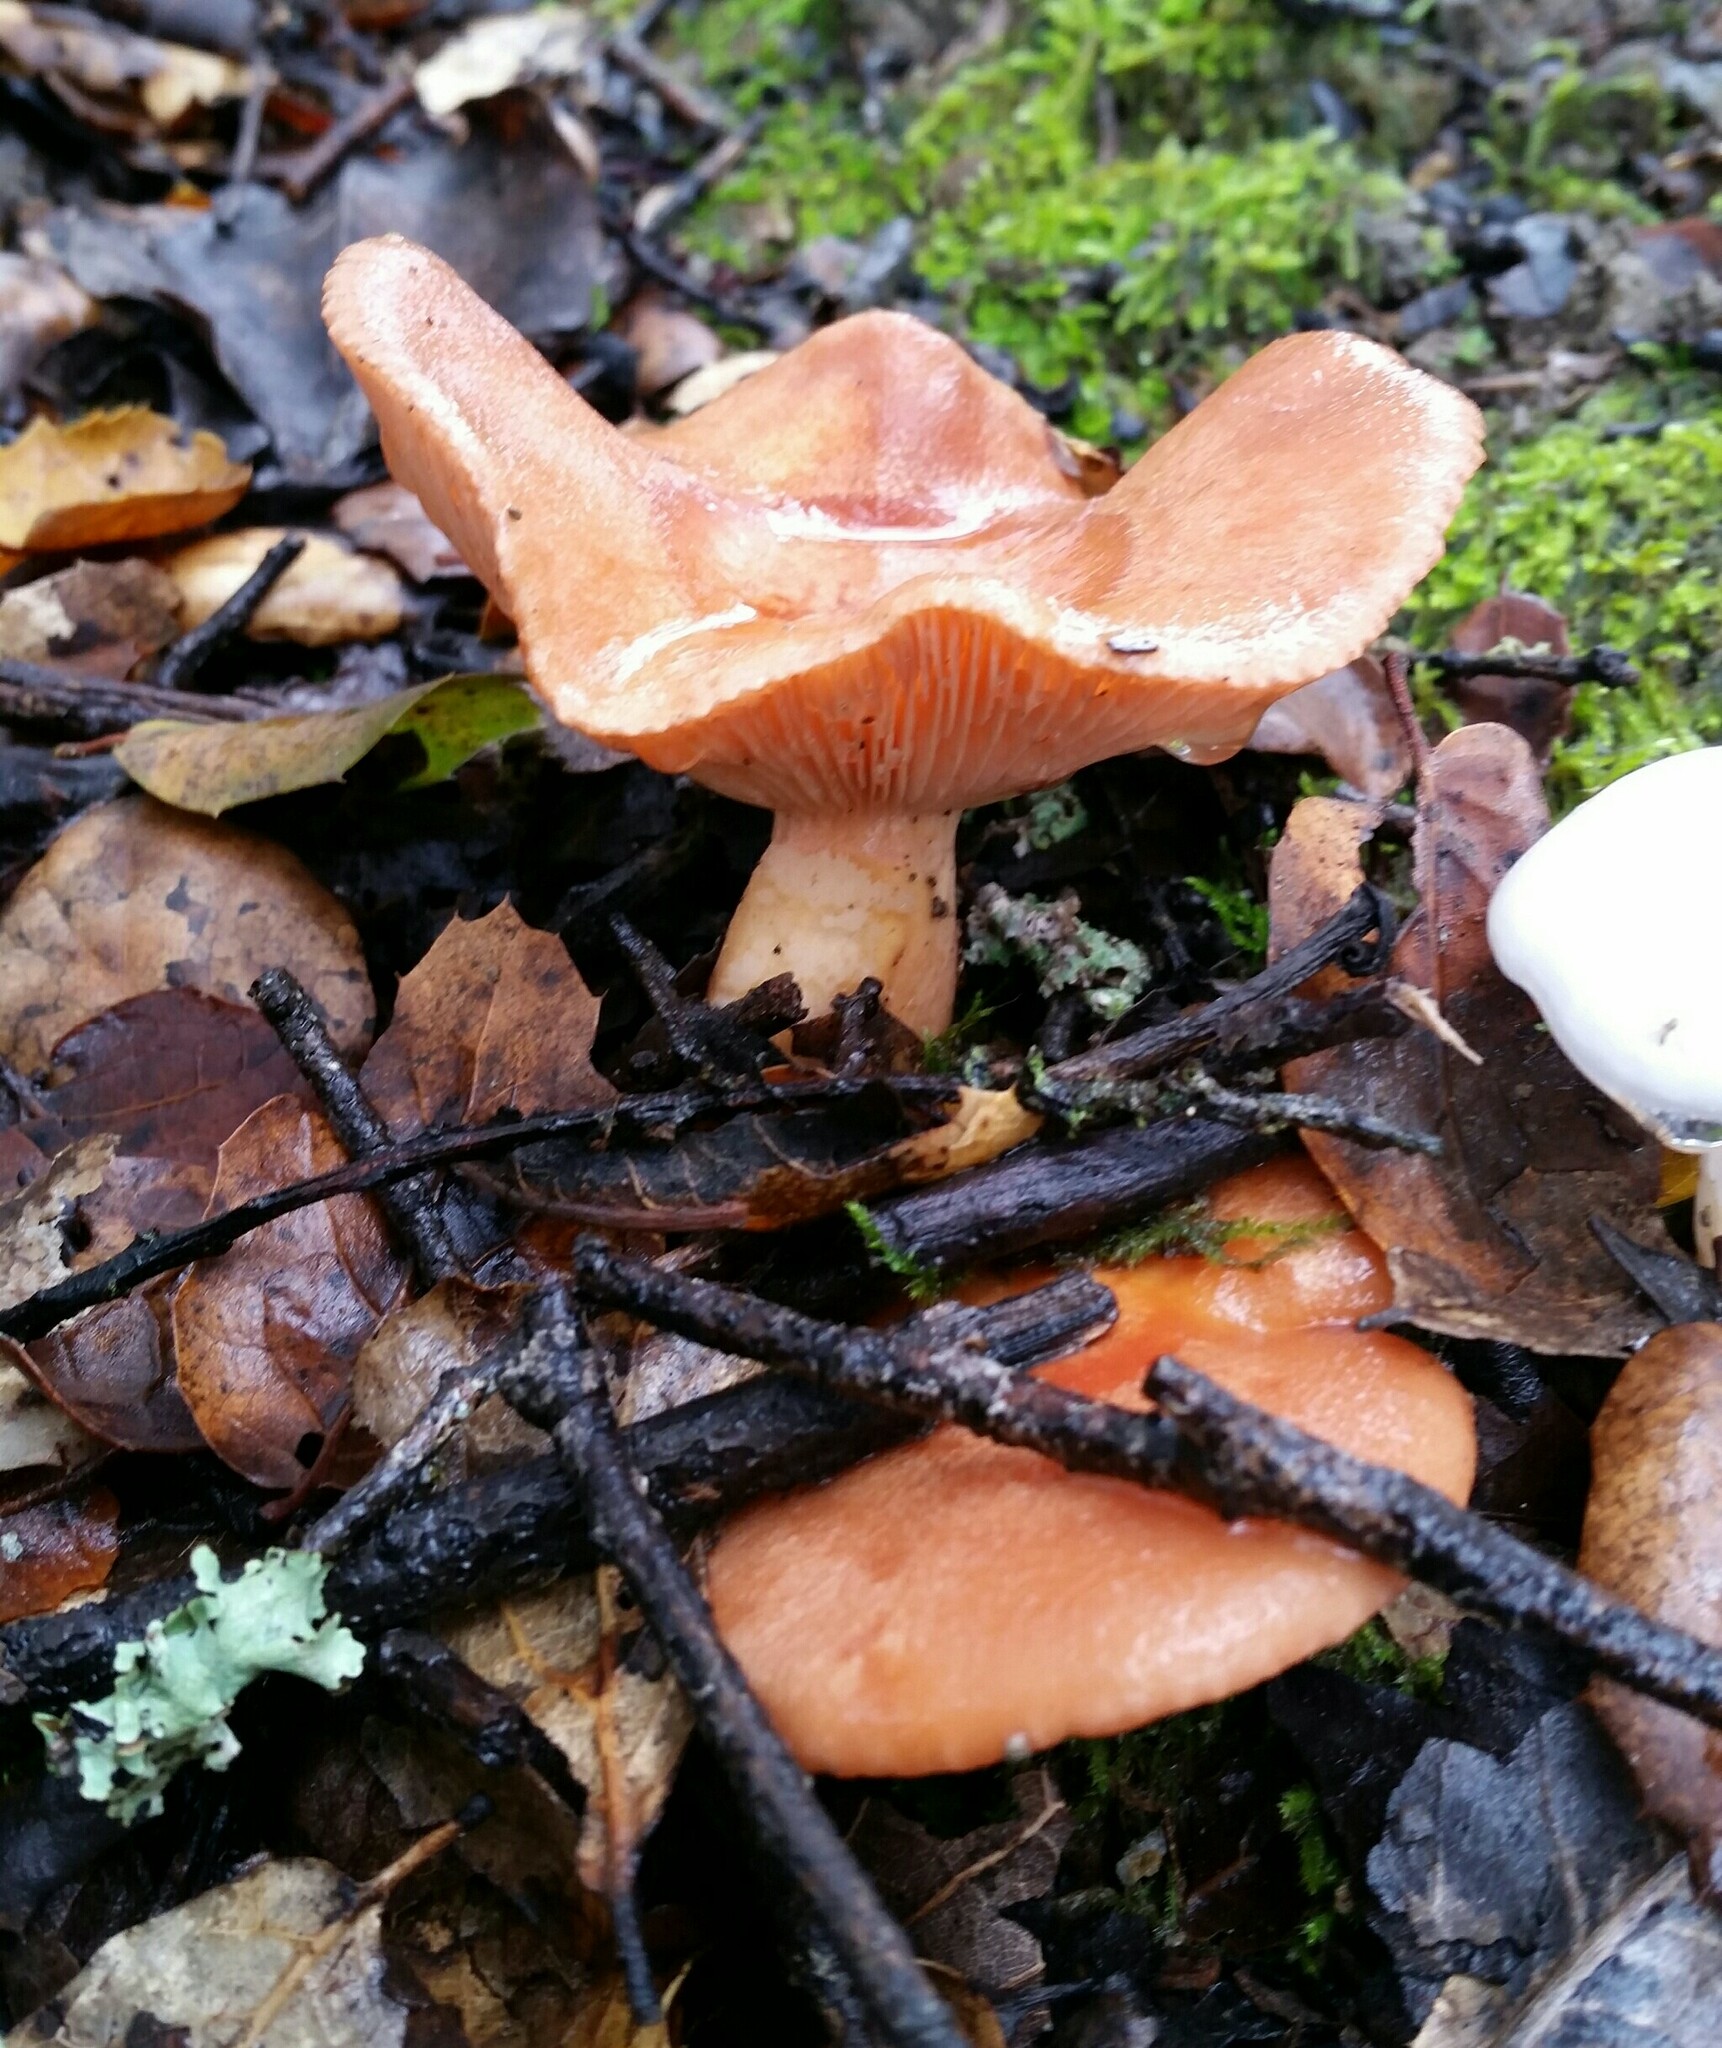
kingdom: Fungi
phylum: Basidiomycota
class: Agaricomycetes
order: Russulales
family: Russulaceae
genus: Lactarius
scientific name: Lactarius xanthogalactus
